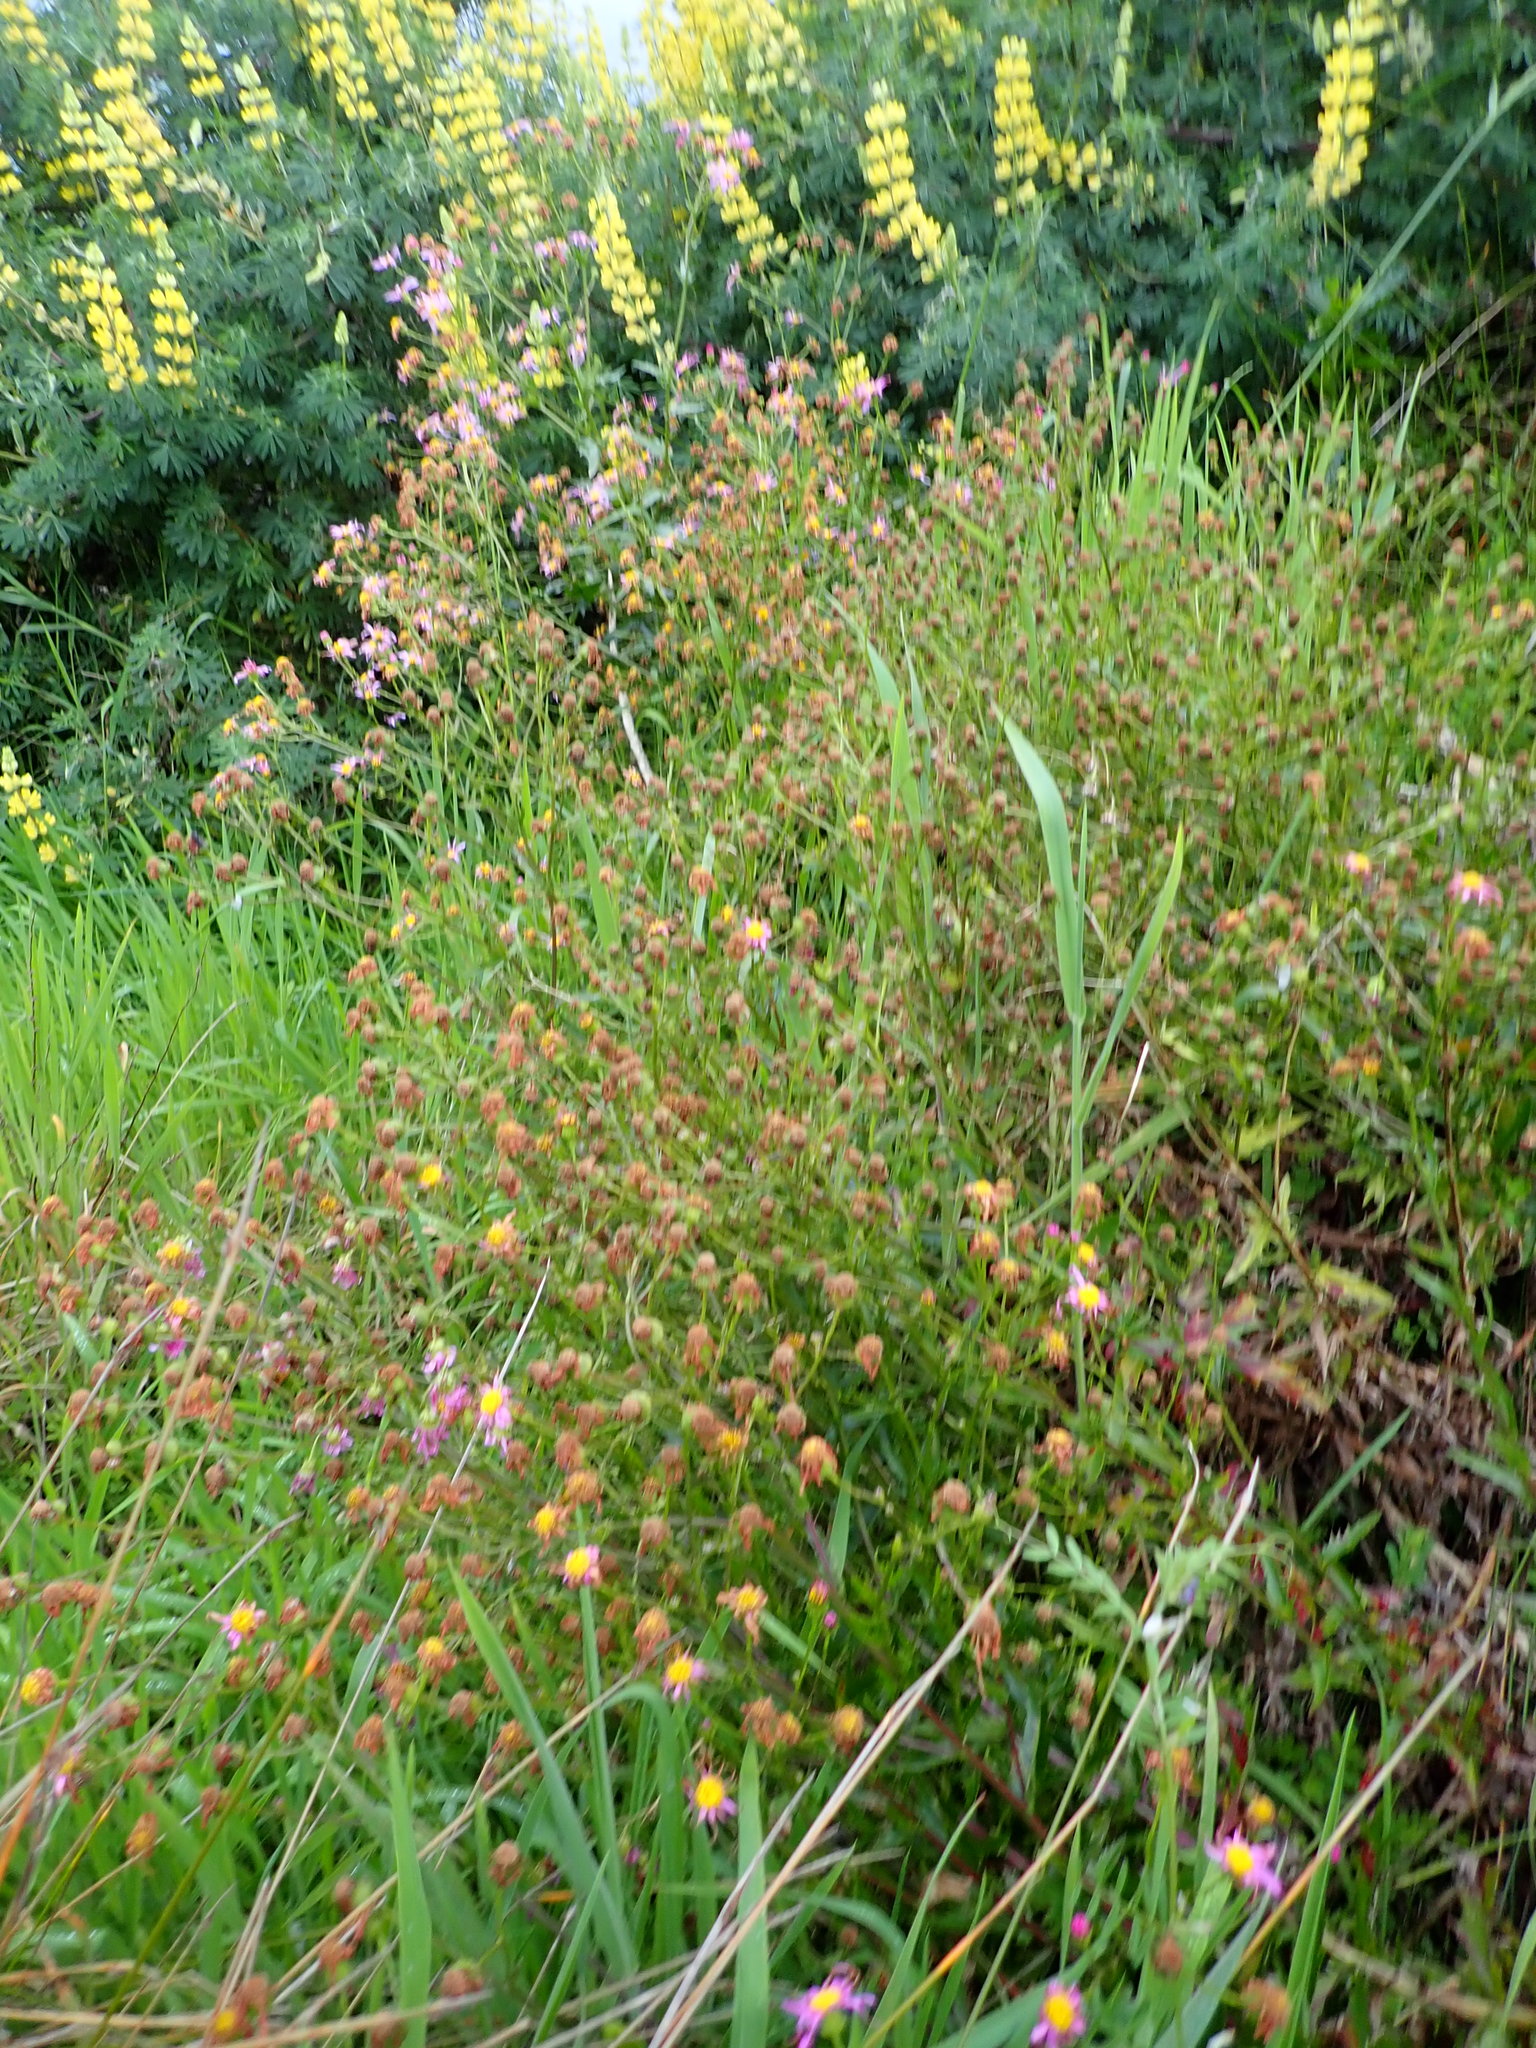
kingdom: Plantae
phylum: Tracheophyta
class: Magnoliopsida
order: Asterales
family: Asteraceae
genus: Senecio
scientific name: Senecio glastifolius
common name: Woad-leaved ragwort
